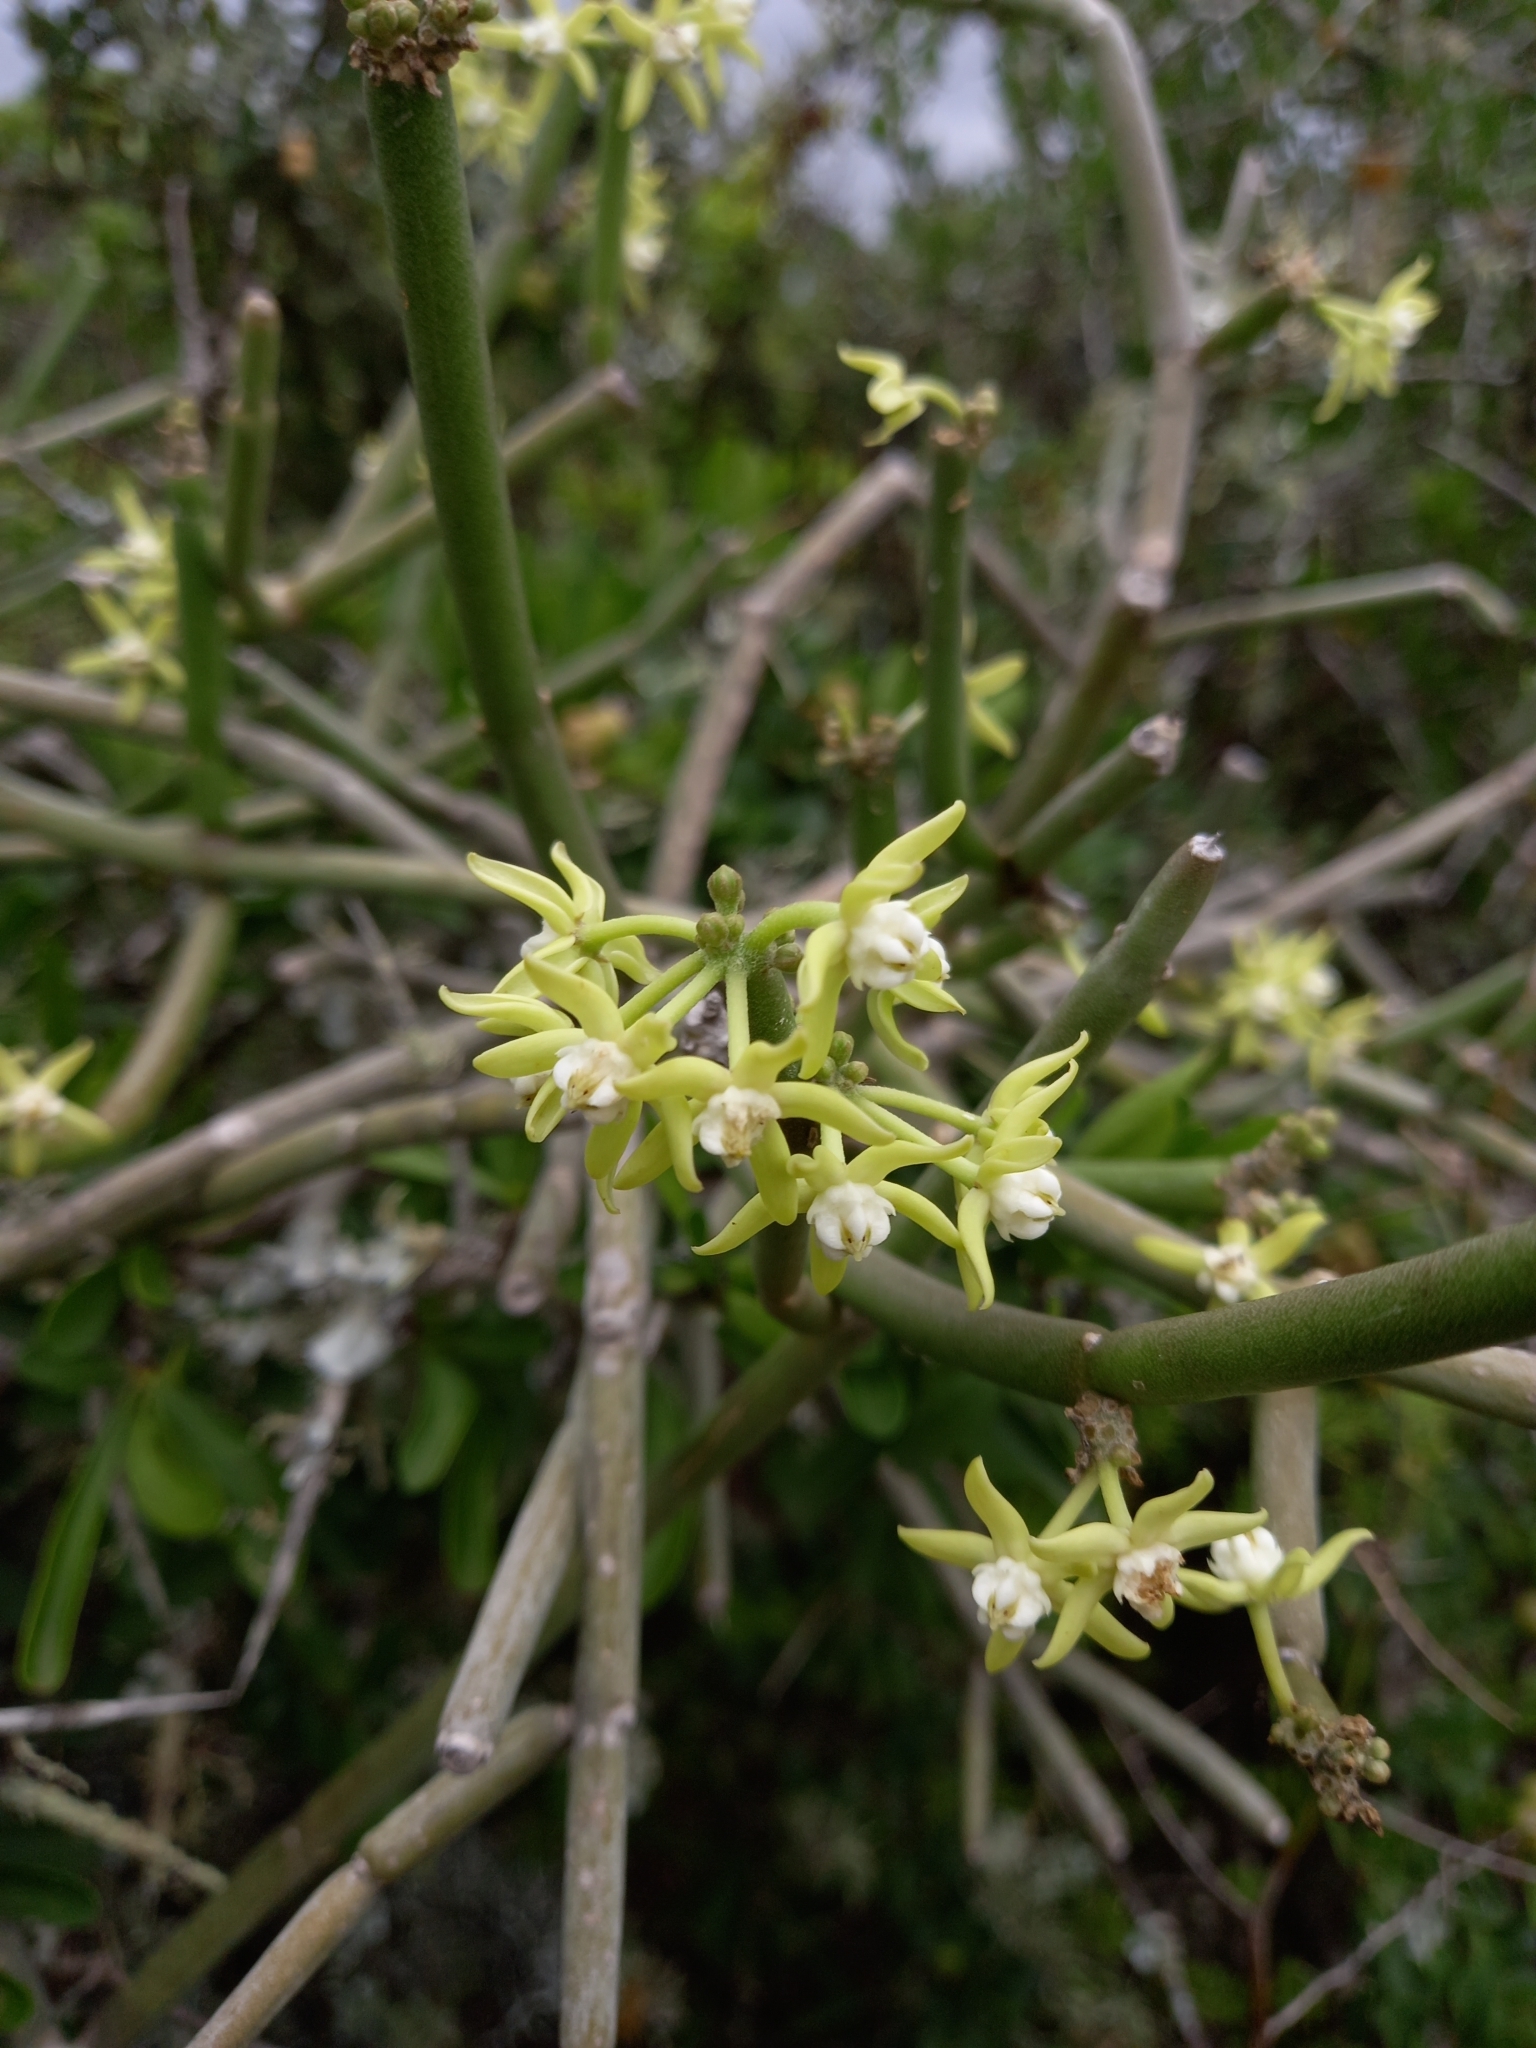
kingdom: Plantae
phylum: Tracheophyta
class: Magnoliopsida
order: Gentianales
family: Apocynaceae
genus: Cynanchum
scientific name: Cynanchum viminale
